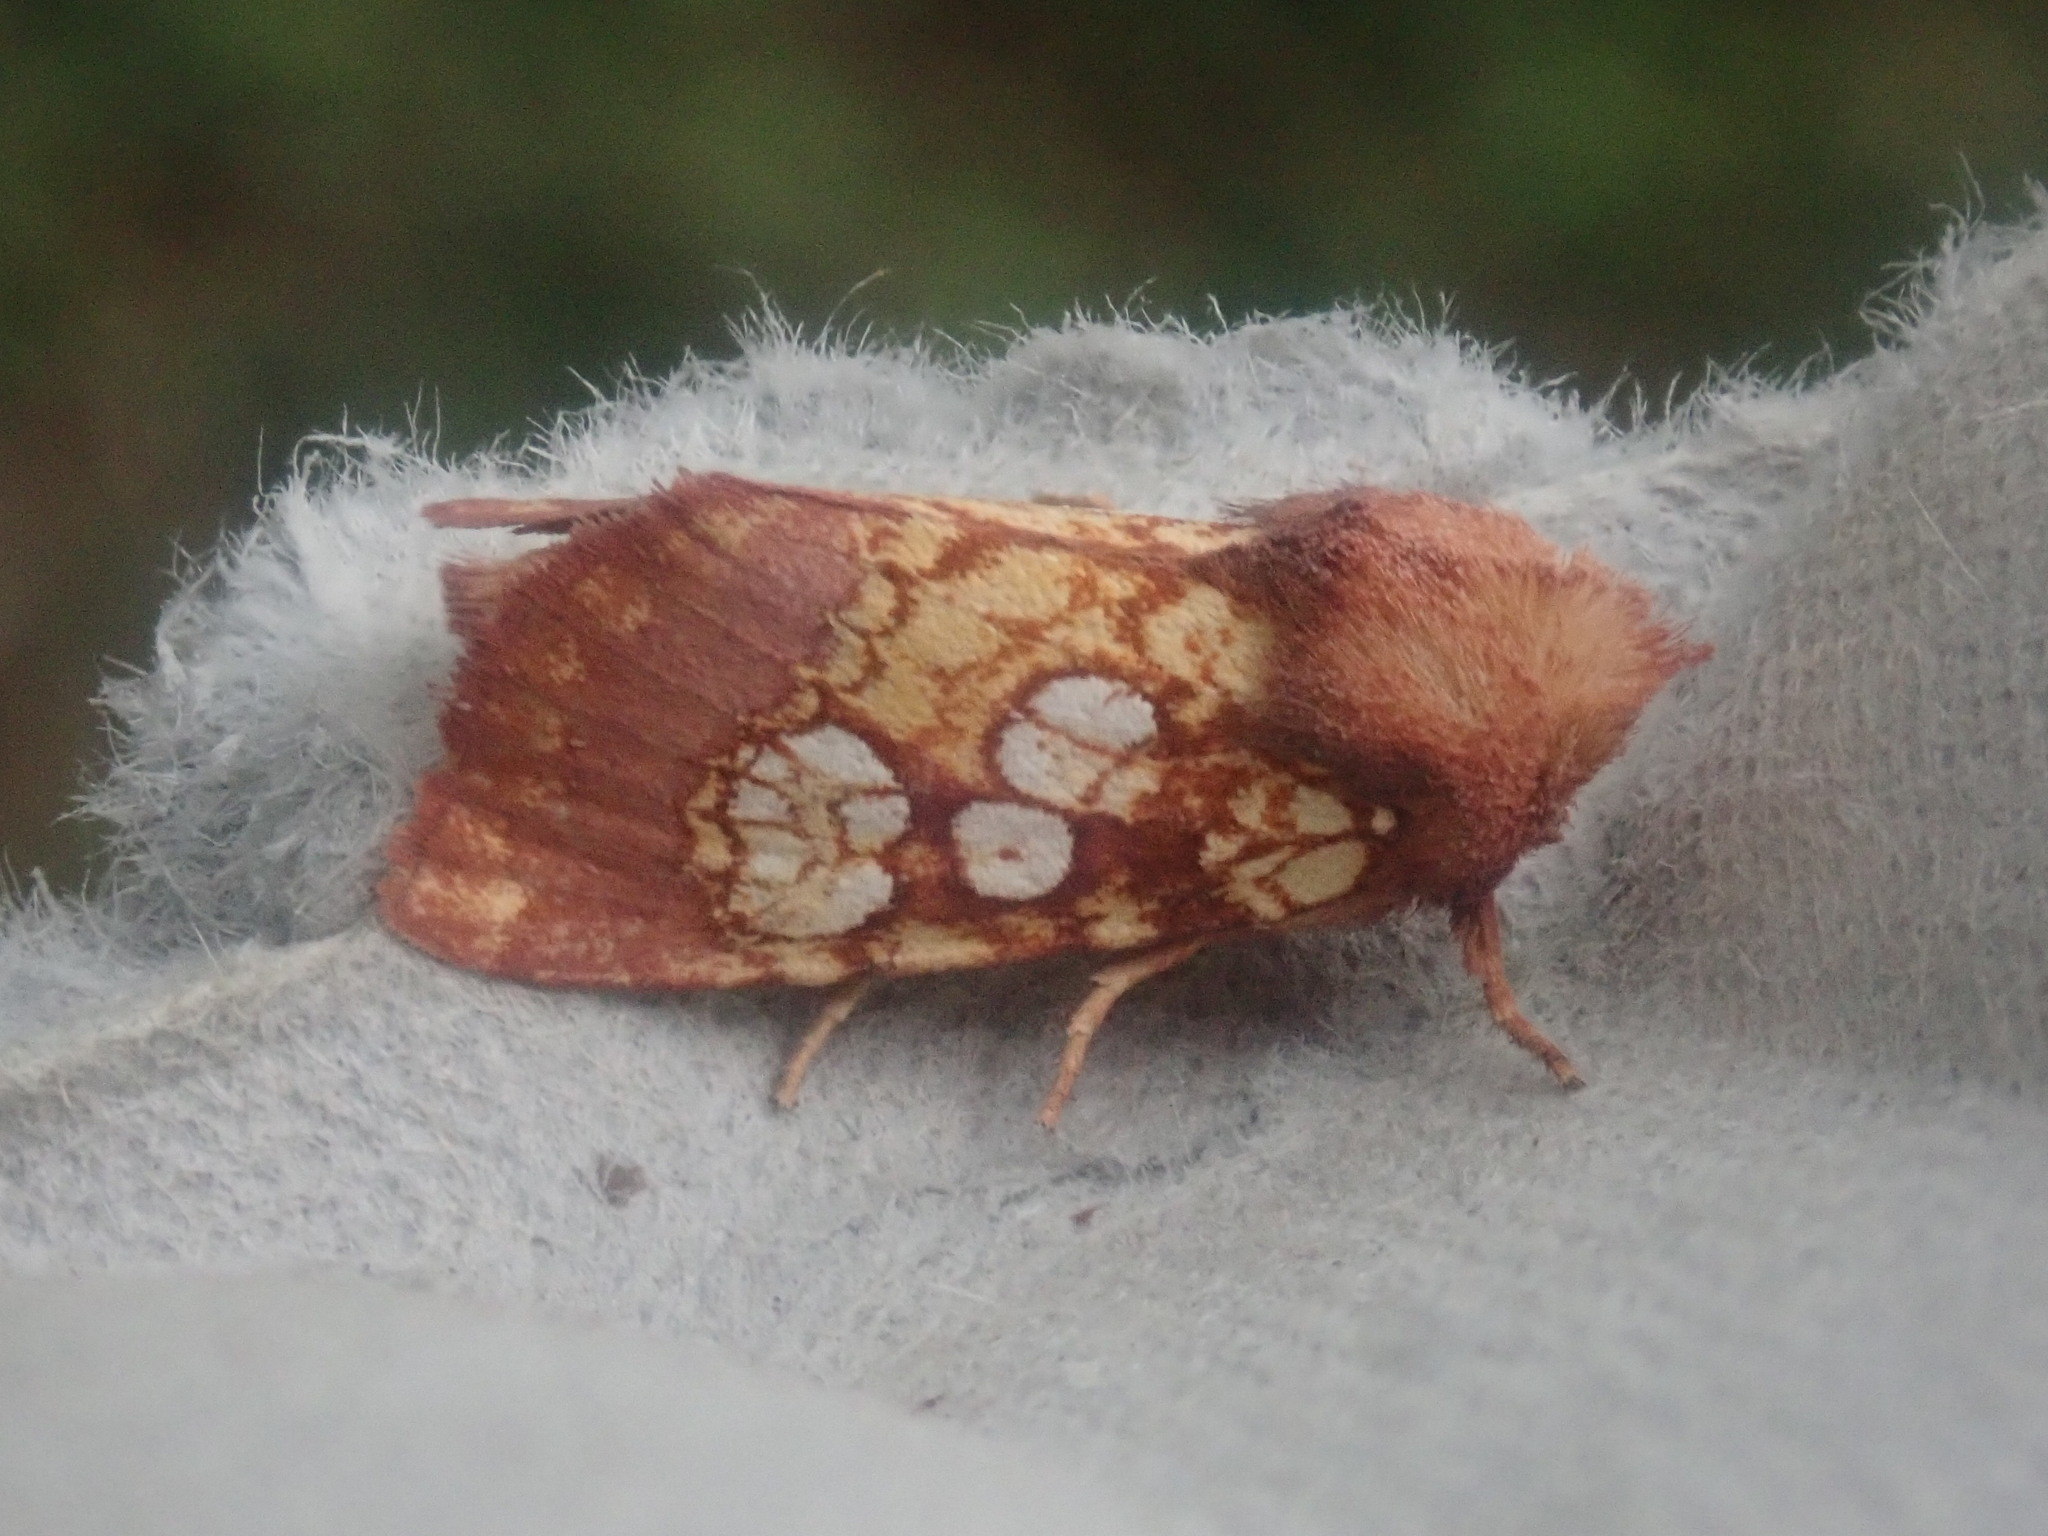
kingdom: Animalia
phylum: Arthropoda
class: Insecta
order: Lepidoptera
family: Noctuidae
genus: Papaipema
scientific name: Papaipema appassionata
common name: Pitcher plant borer moth
